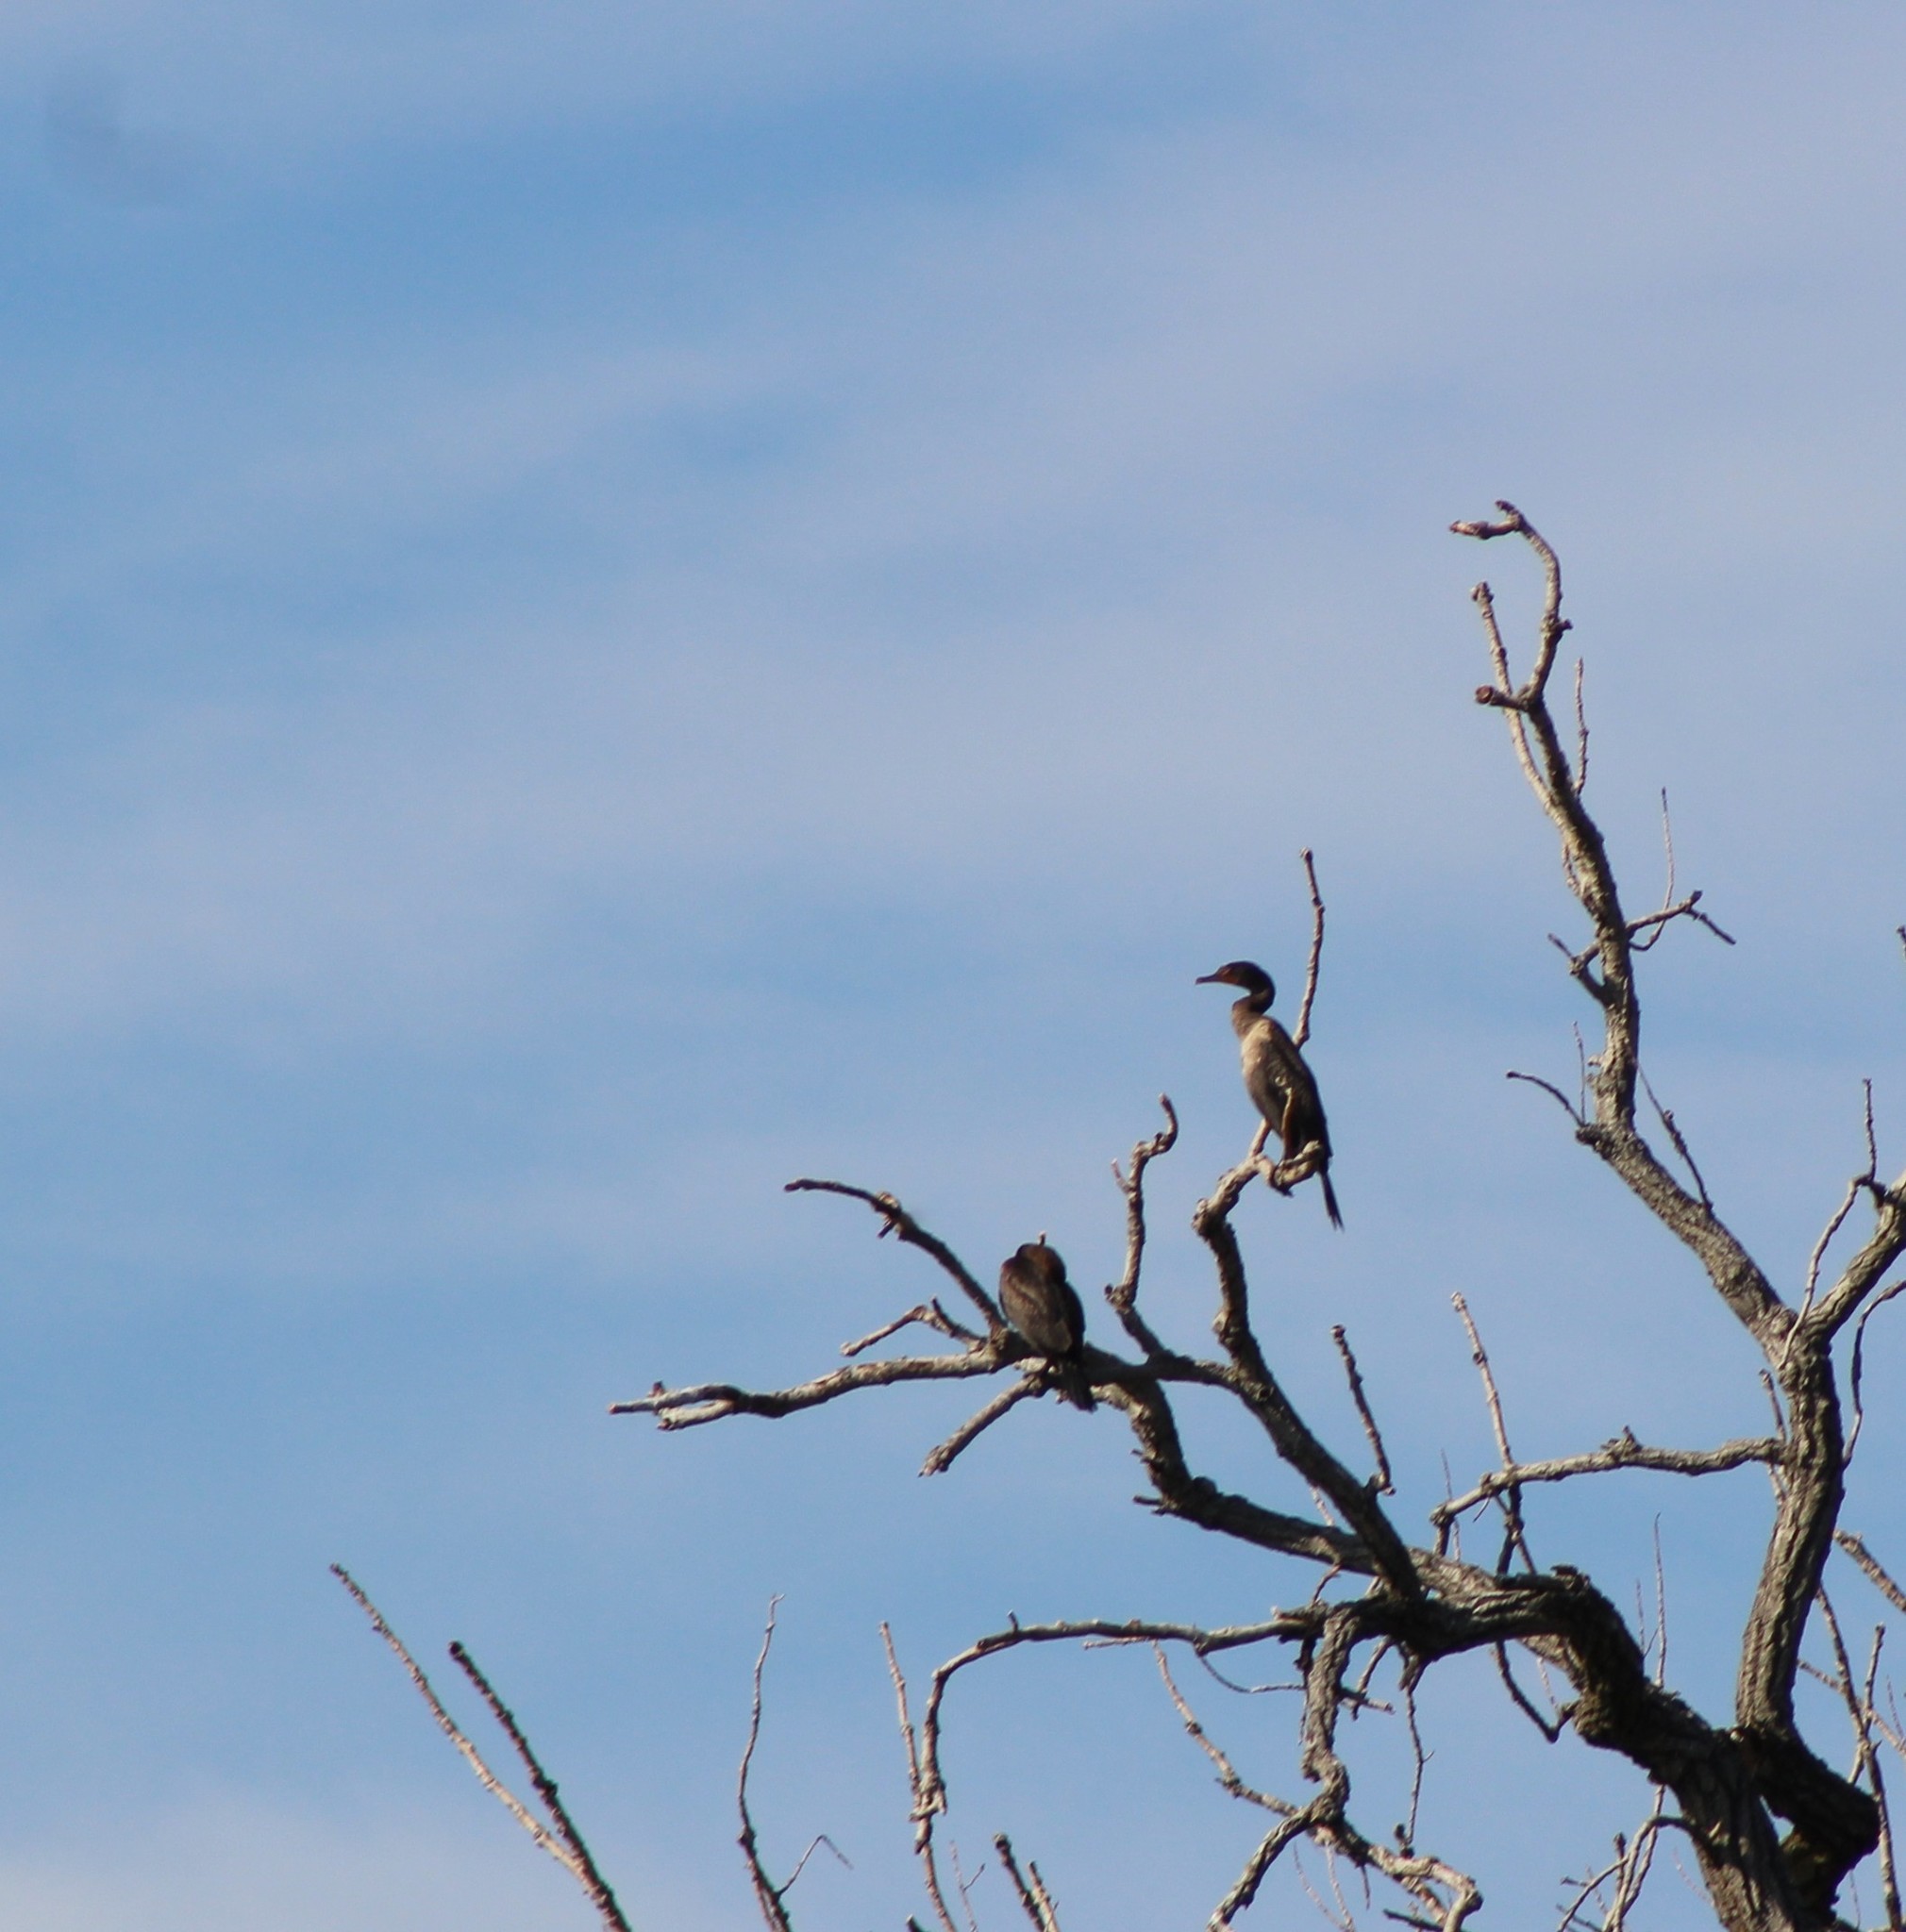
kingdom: Animalia
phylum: Chordata
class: Aves
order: Suliformes
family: Phalacrocoracidae
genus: Phalacrocorax
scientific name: Phalacrocorax auritus
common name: Double-crested cormorant
